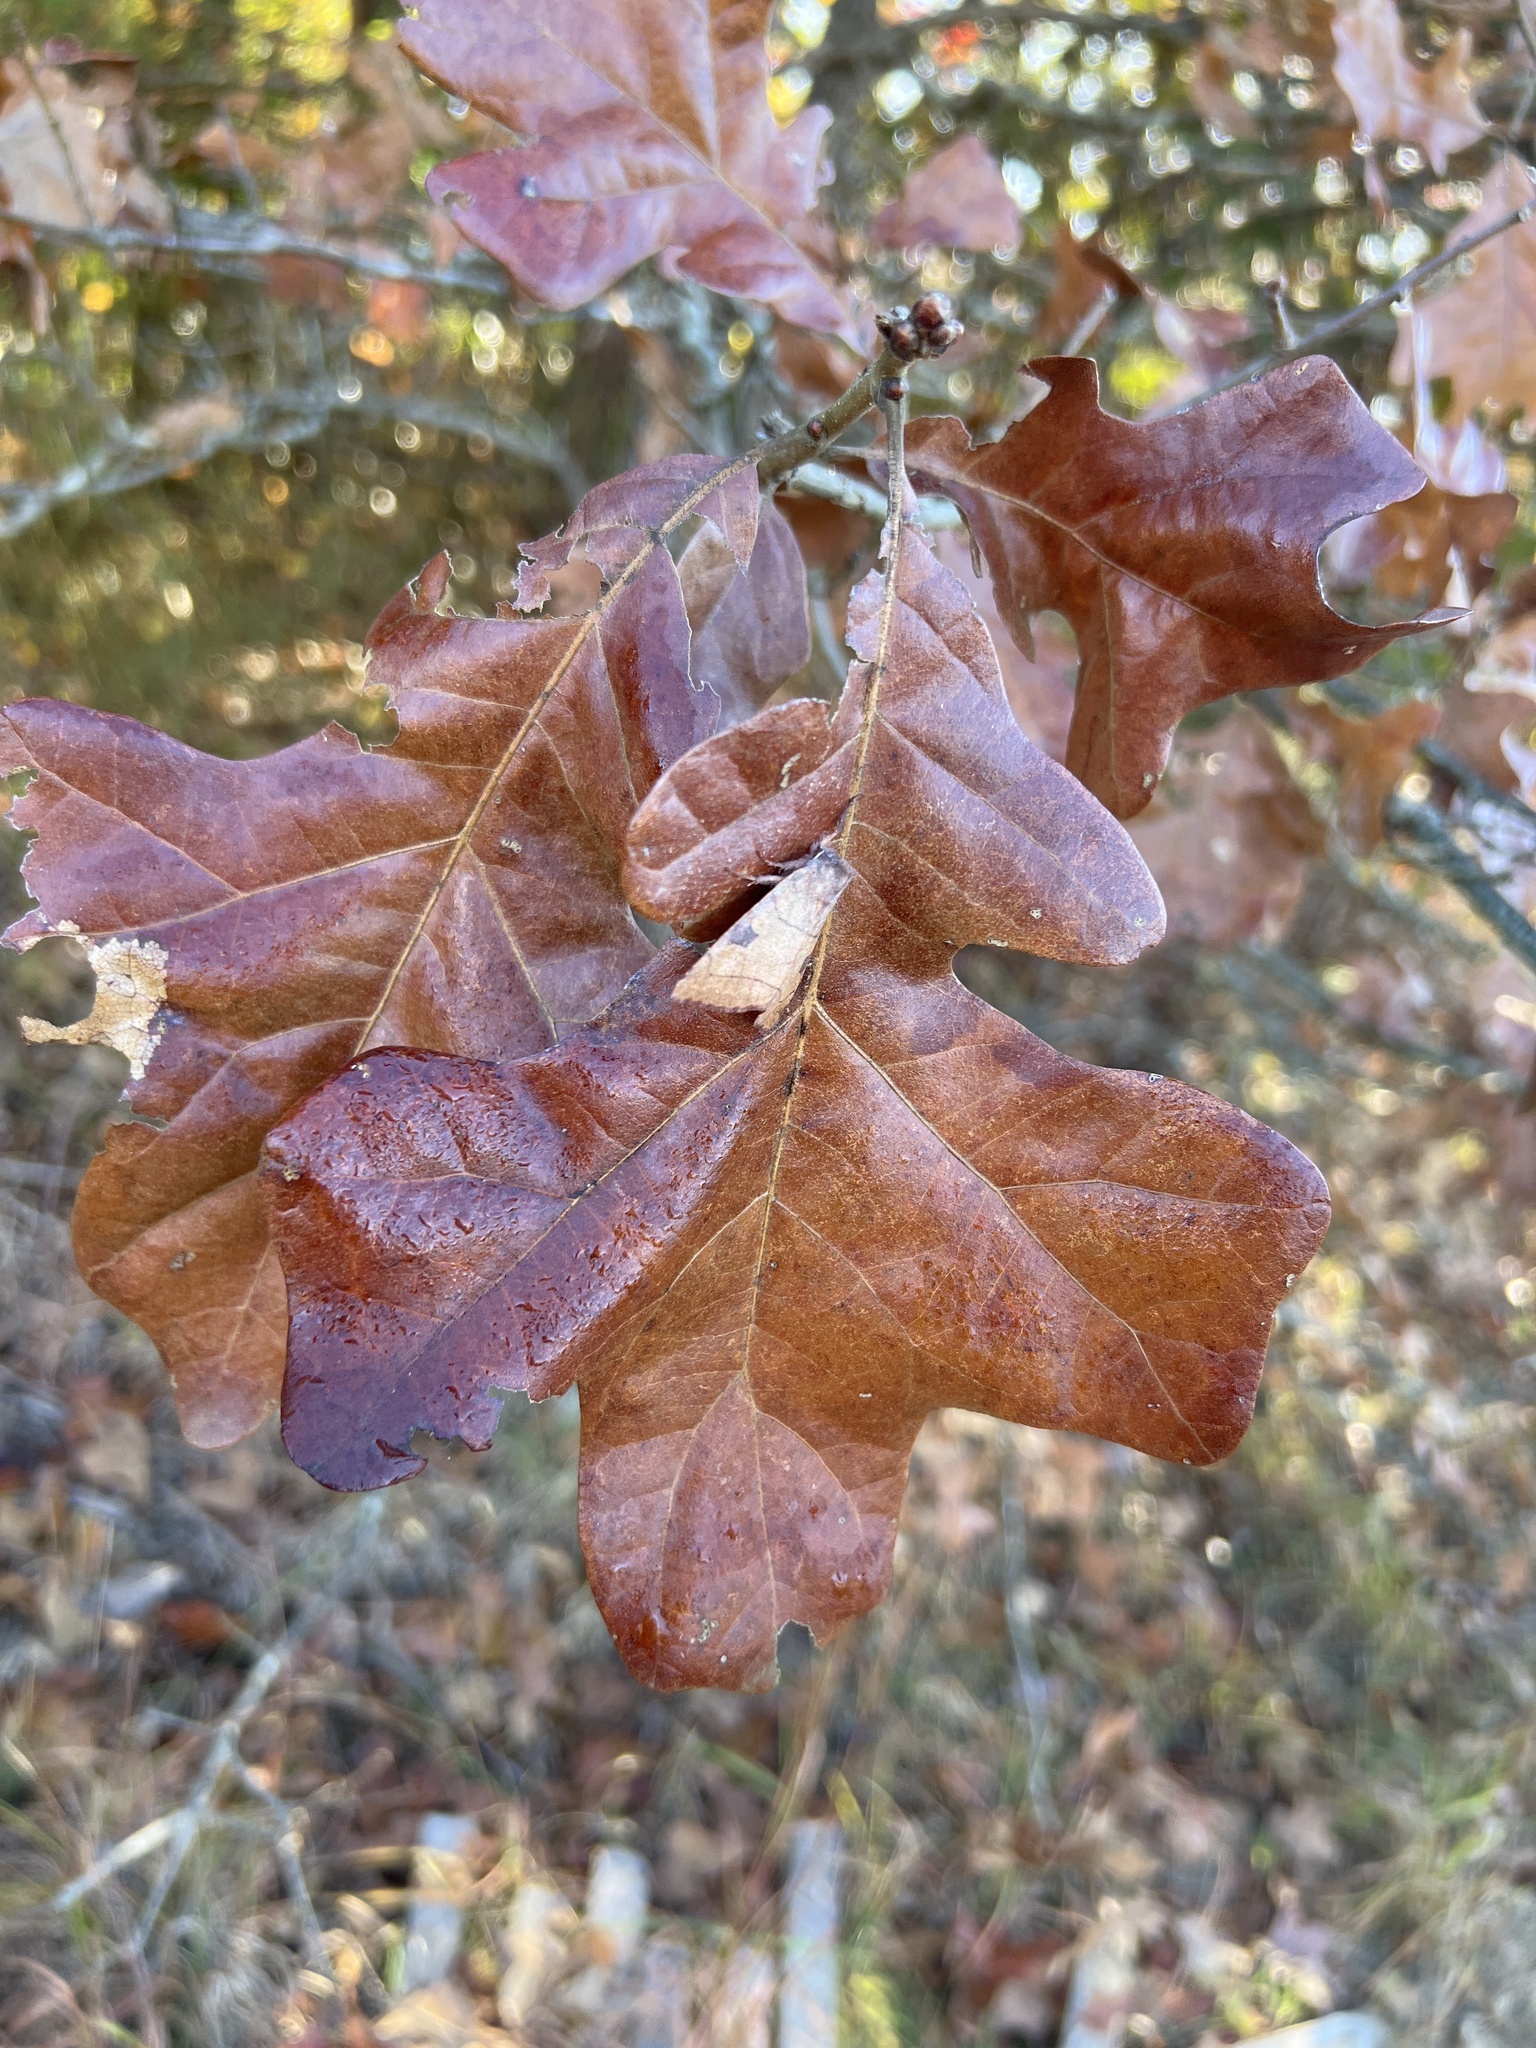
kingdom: Plantae
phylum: Tracheophyta
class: Magnoliopsida
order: Fagales
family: Fagaceae
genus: Quercus
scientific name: Quercus stellata
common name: Post oak
